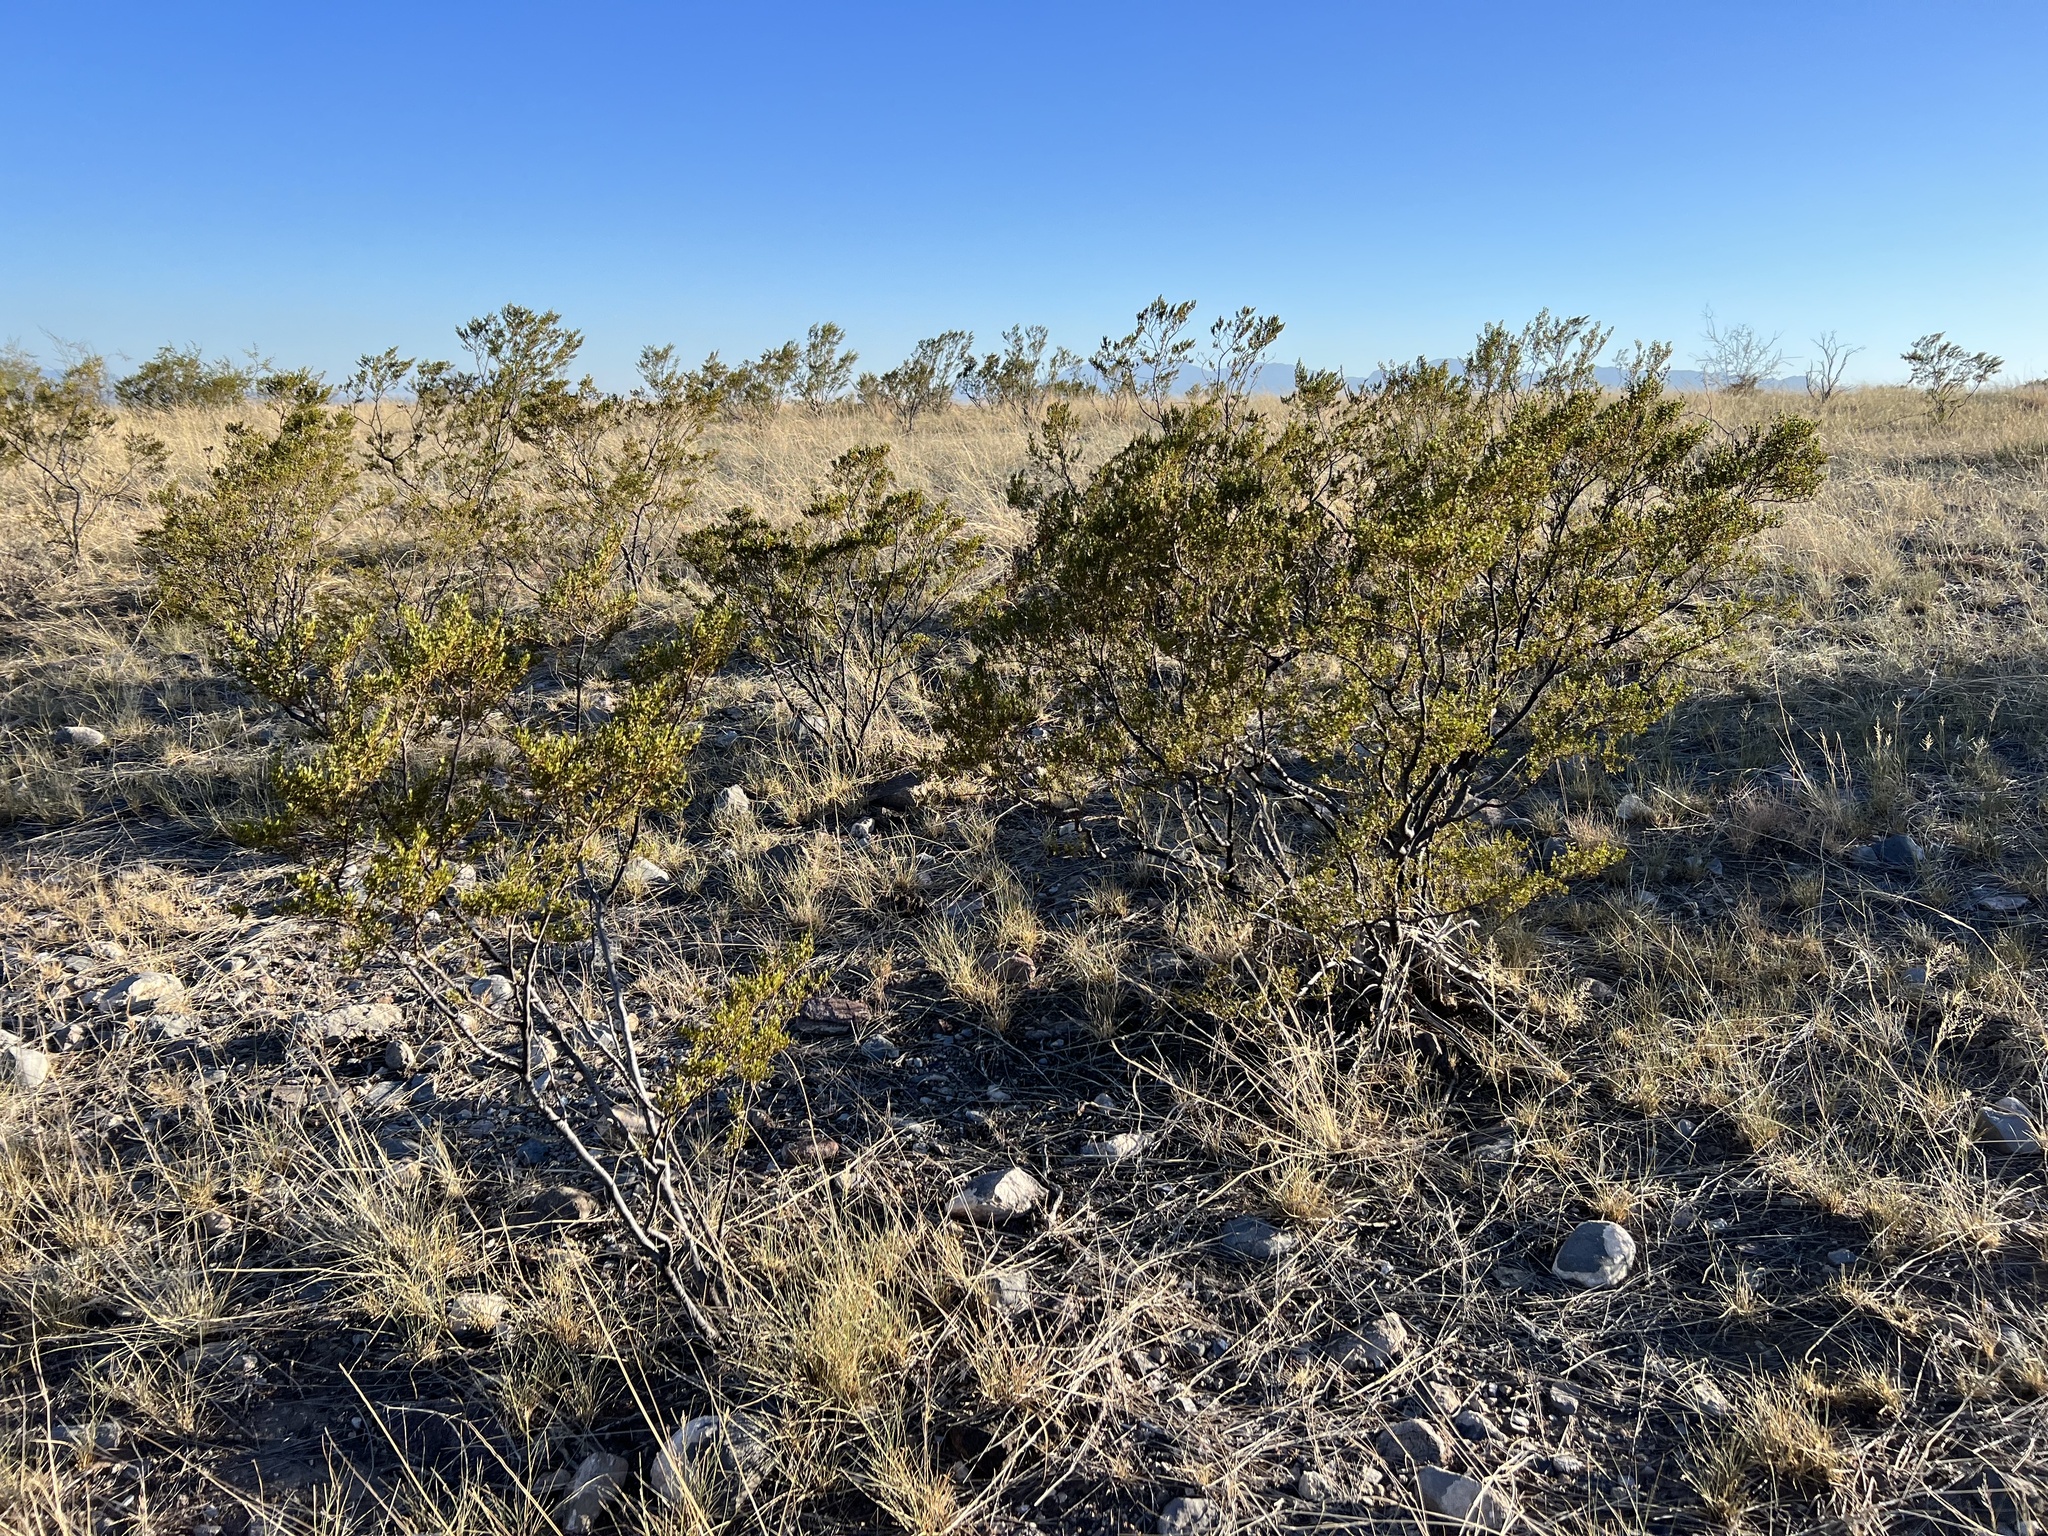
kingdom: Plantae
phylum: Tracheophyta
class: Magnoliopsida
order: Zygophyllales
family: Zygophyllaceae
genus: Larrea
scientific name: Larrea tridentata
